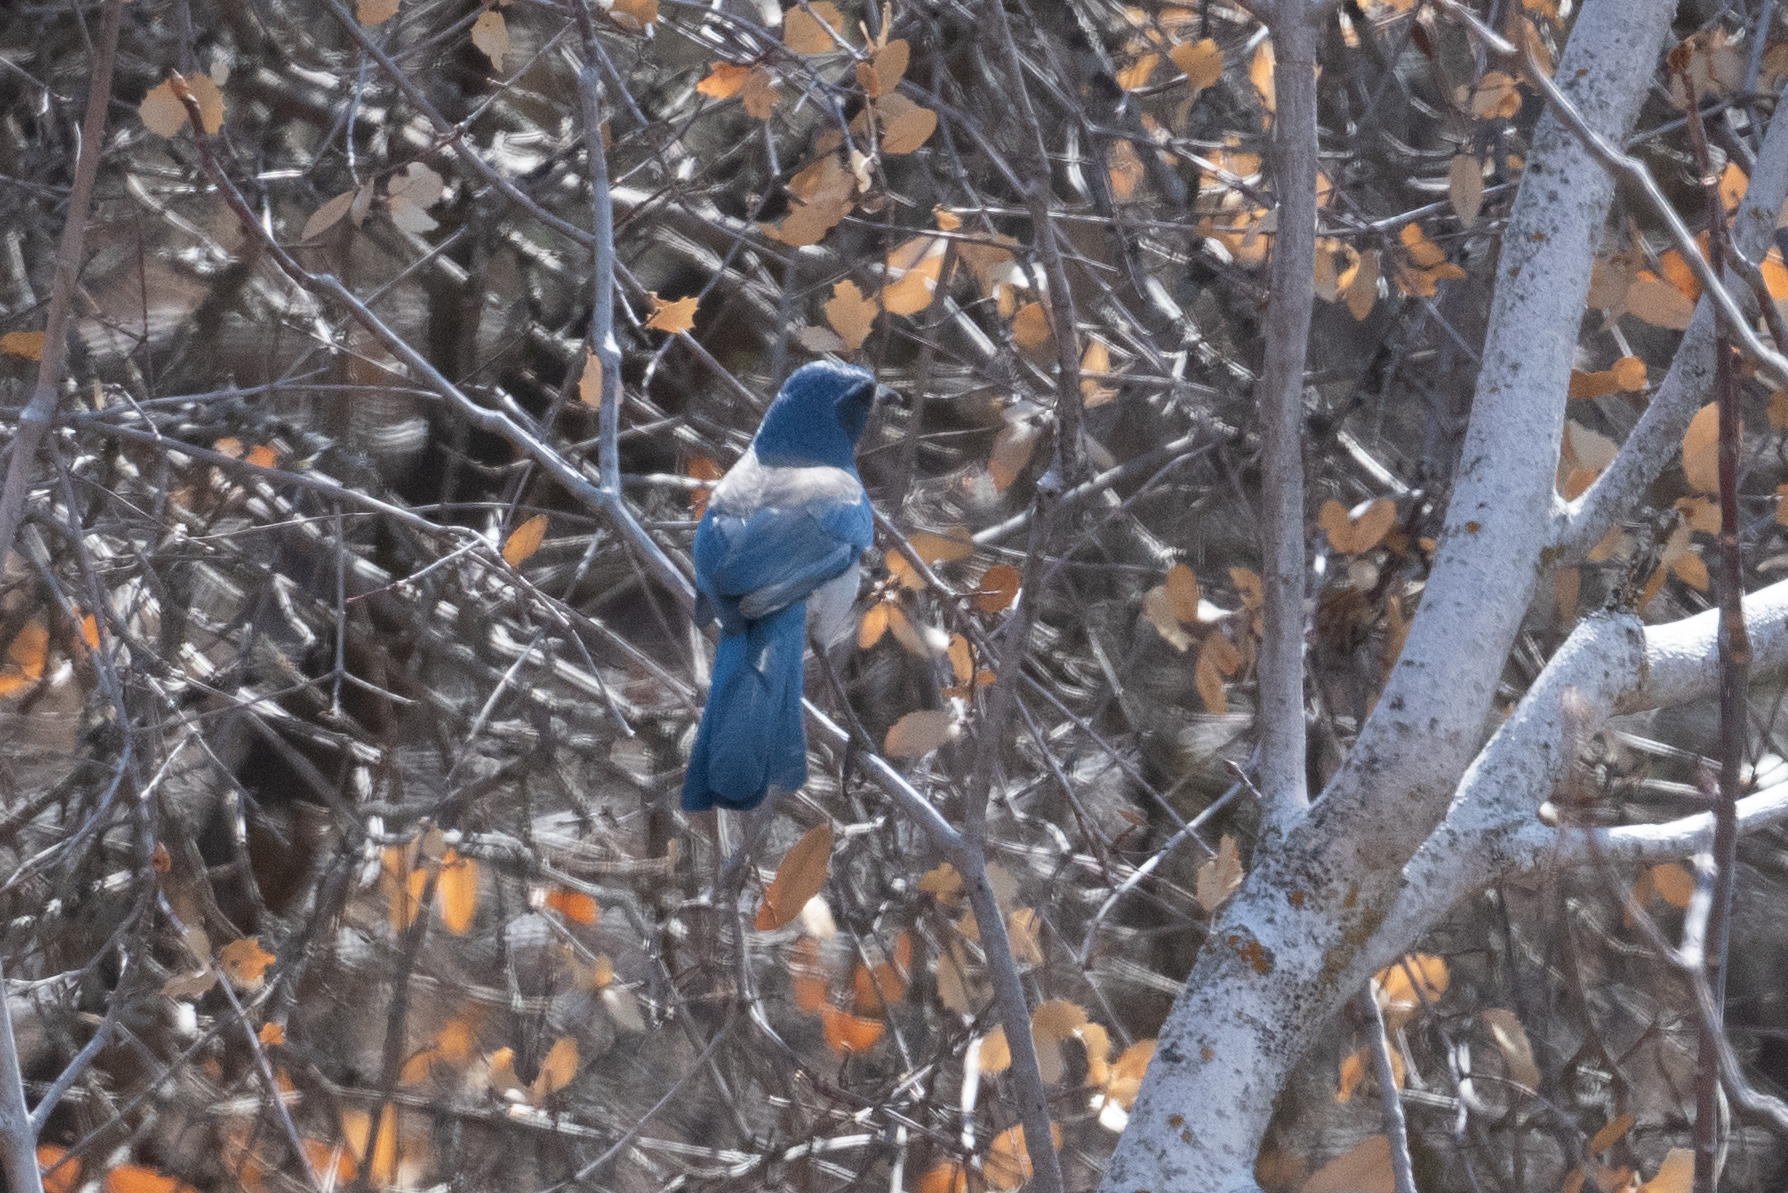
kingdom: Animalia
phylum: Chordata
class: Aves
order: Passeriformes
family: Corvidae
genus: Aphelocoma
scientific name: Aphelocoma californica
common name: California scrub-jay
